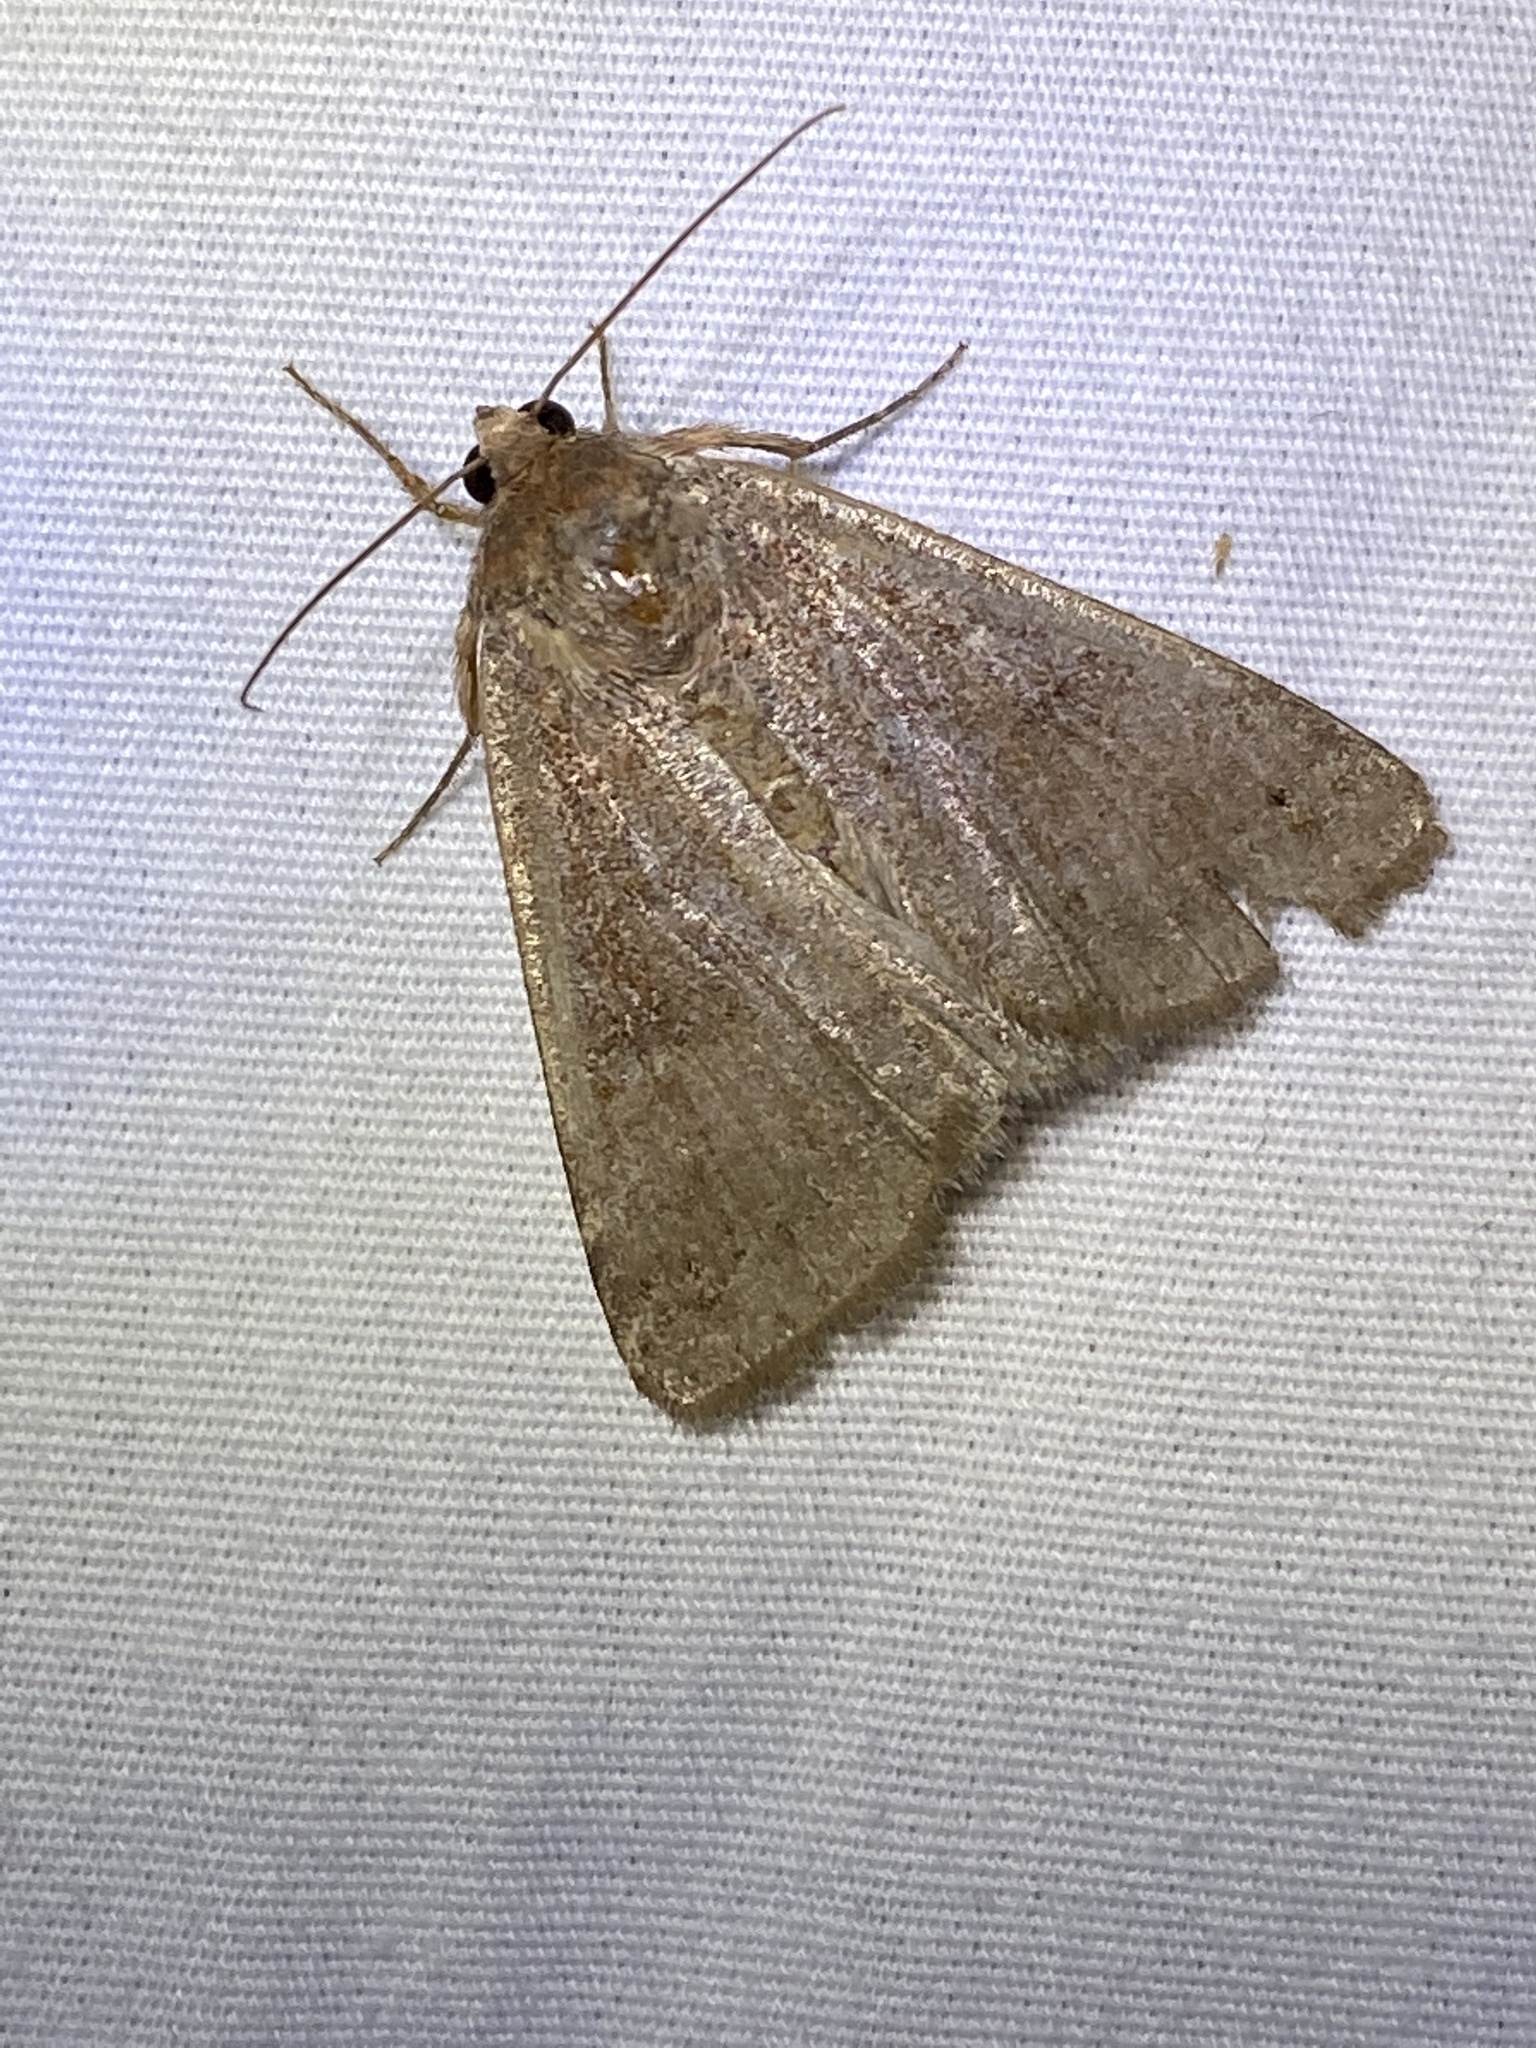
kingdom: Animalia
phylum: Arthropoda
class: Insecta
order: Lepidoptera
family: Erebidae
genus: Cissusa
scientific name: Cissusa spadix
